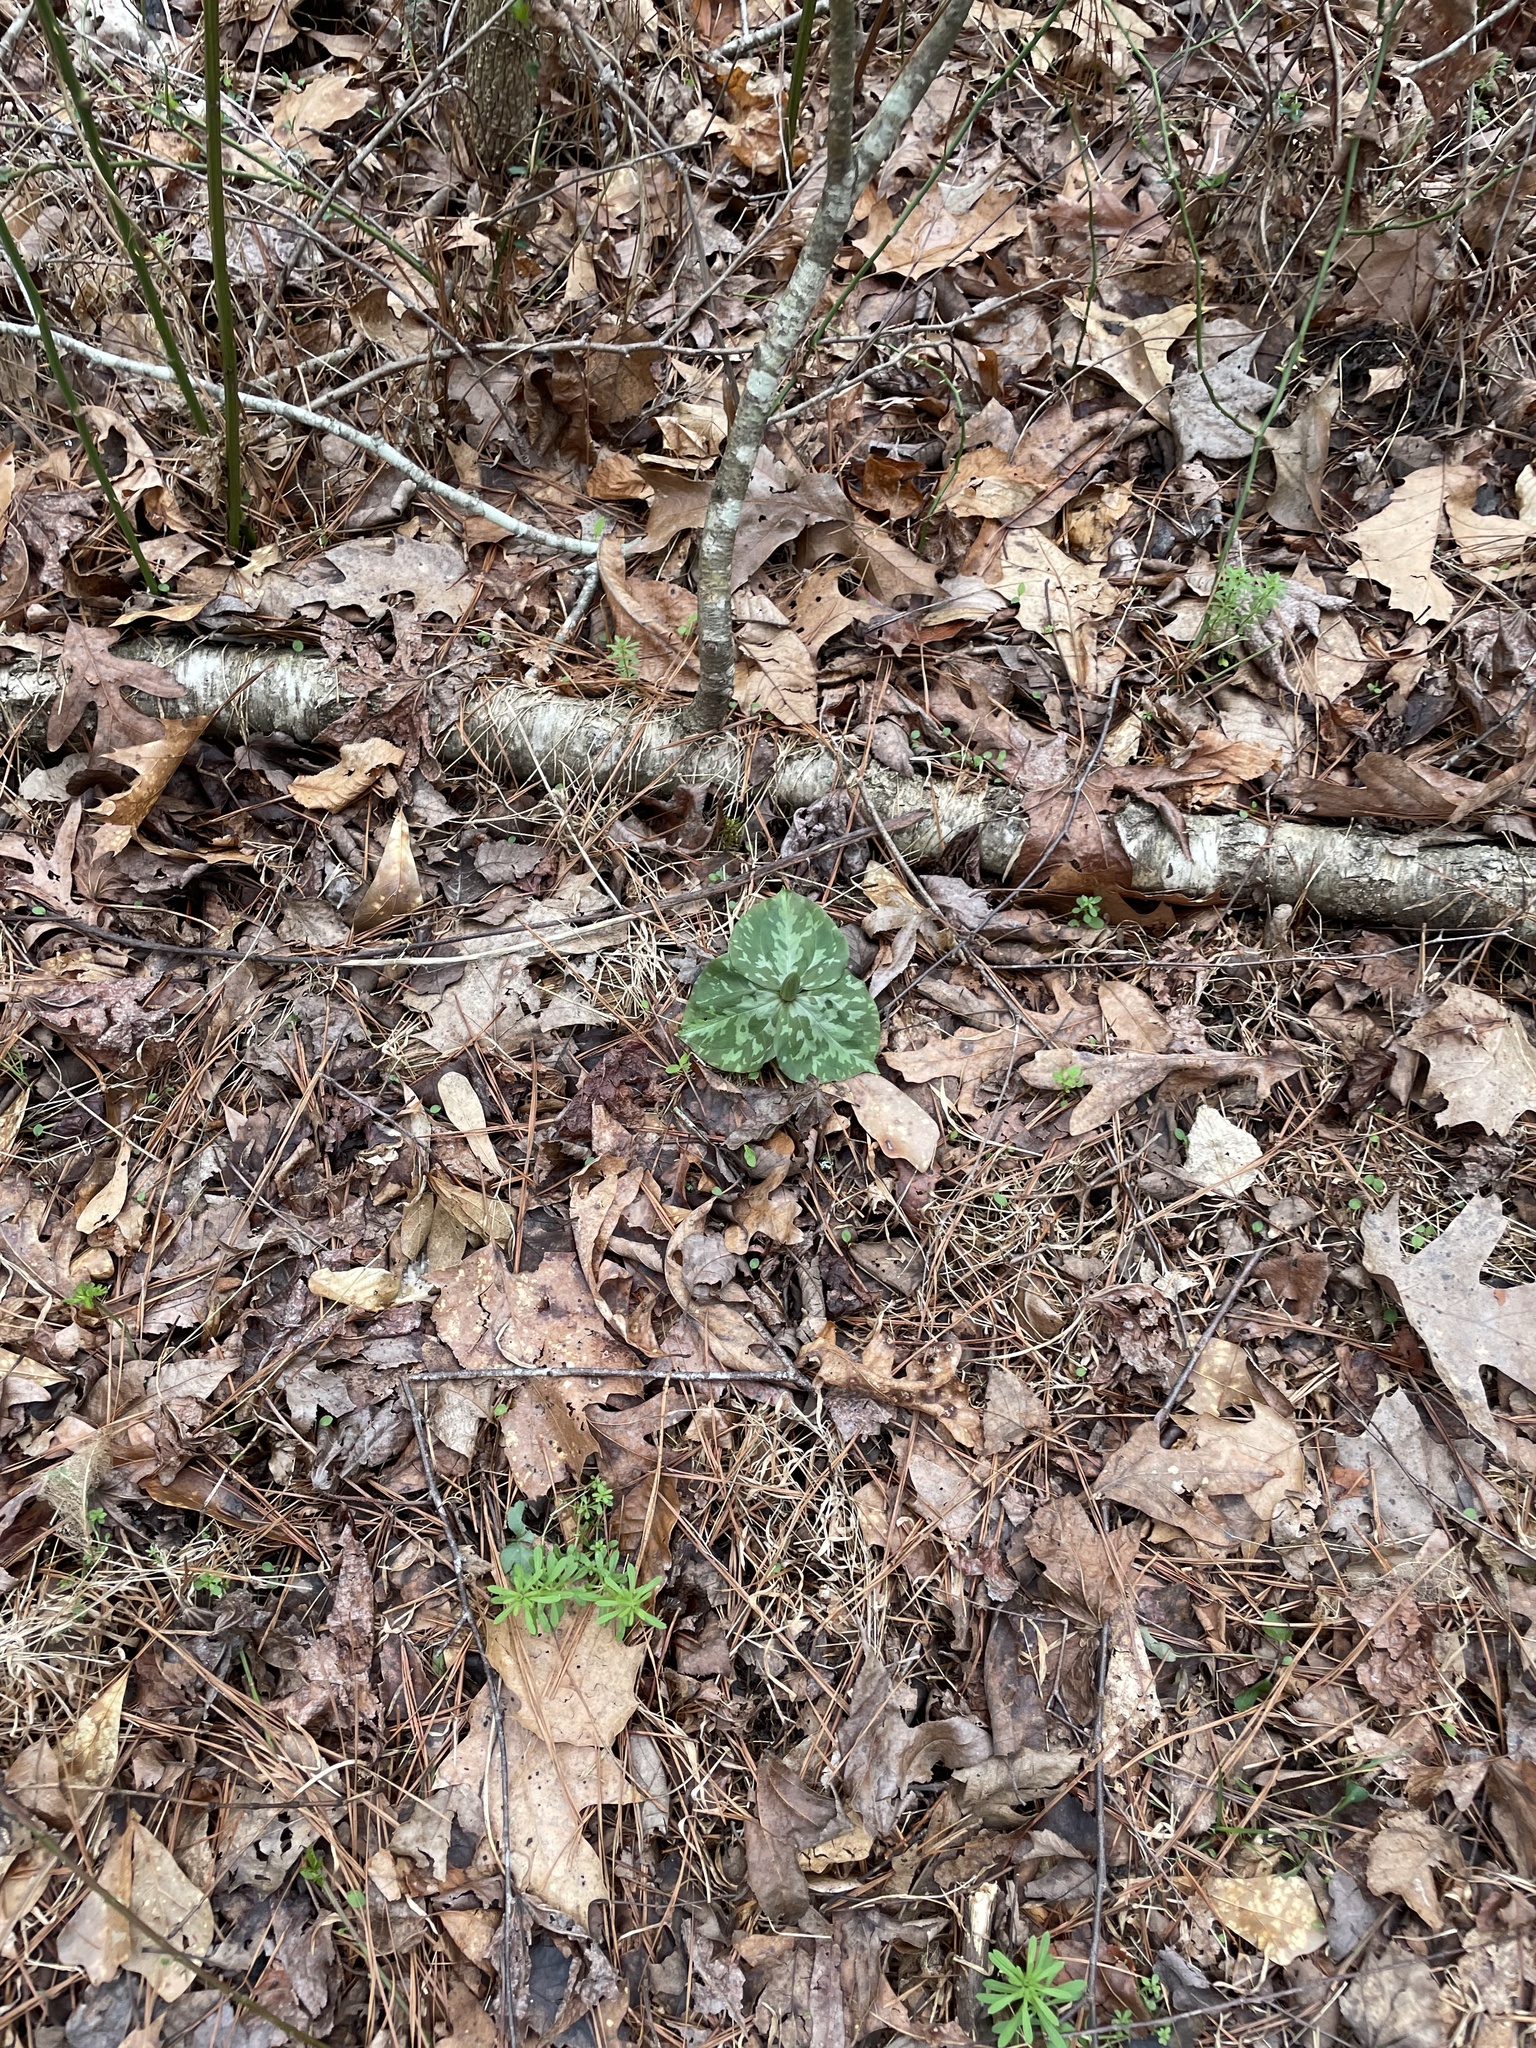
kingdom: Plantae
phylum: Tracheophyta
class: Liliopsida
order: Liliales
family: Melanthiaceae
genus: Trillium
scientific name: Trillium cuneatum
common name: Cuneate trillium
